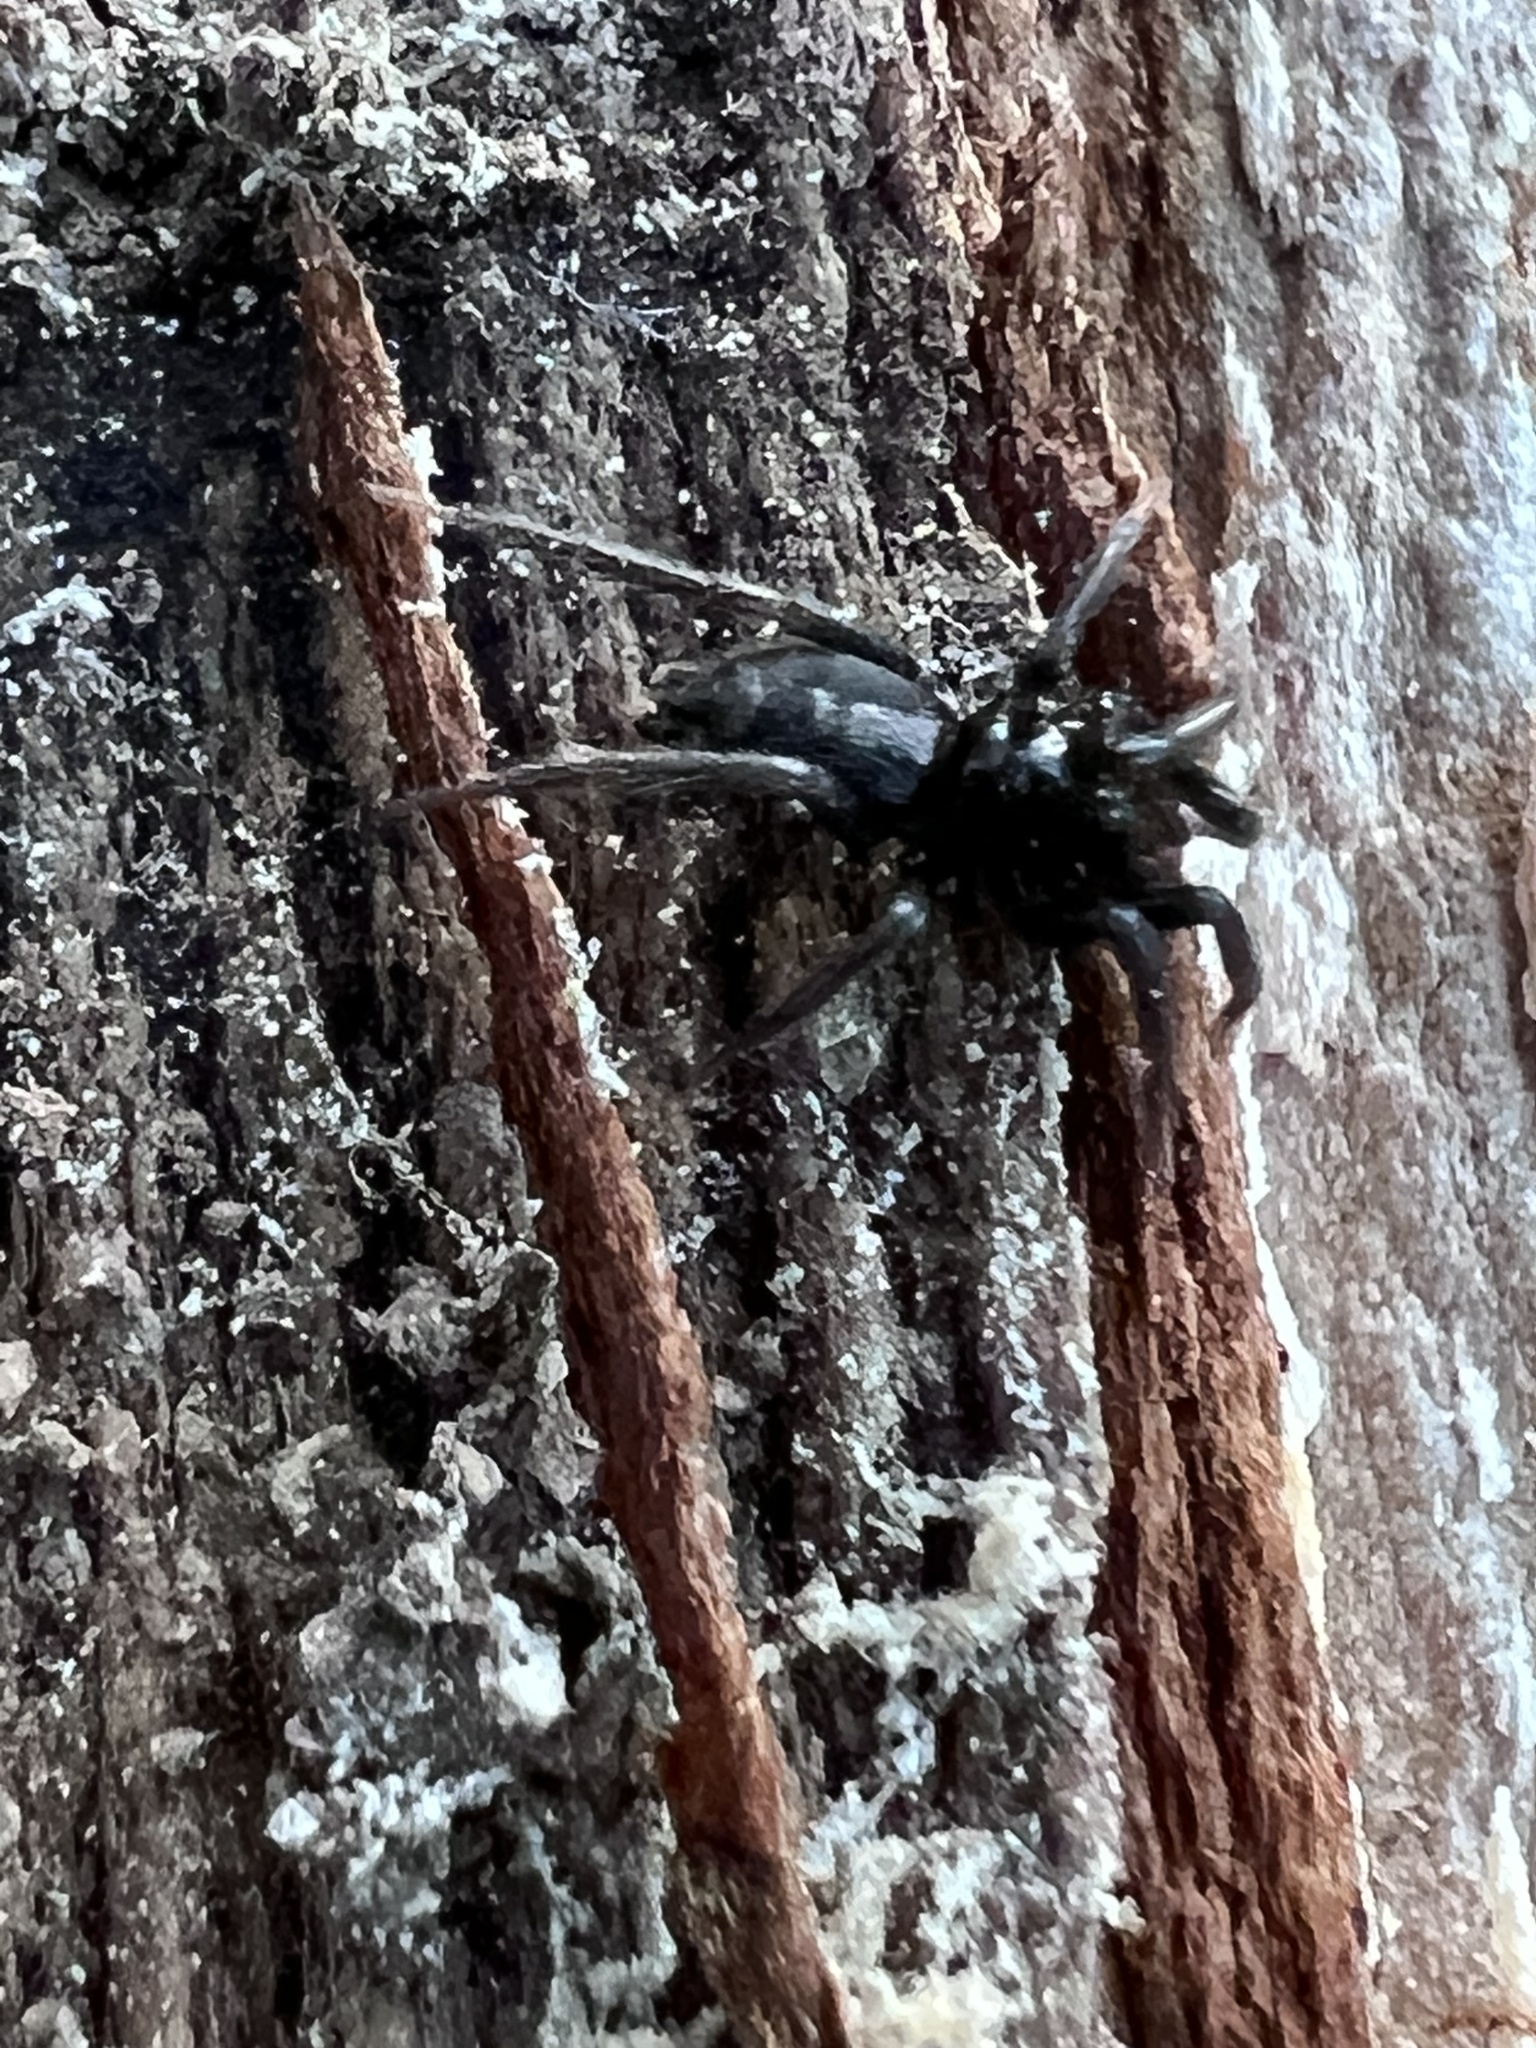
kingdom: Animalia
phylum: Arthropoda
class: Arachnida
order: Araneae
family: Gnaphosidae
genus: Herpyllus
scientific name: Herpyllus ecclesiasticus
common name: Eastern parson spider
